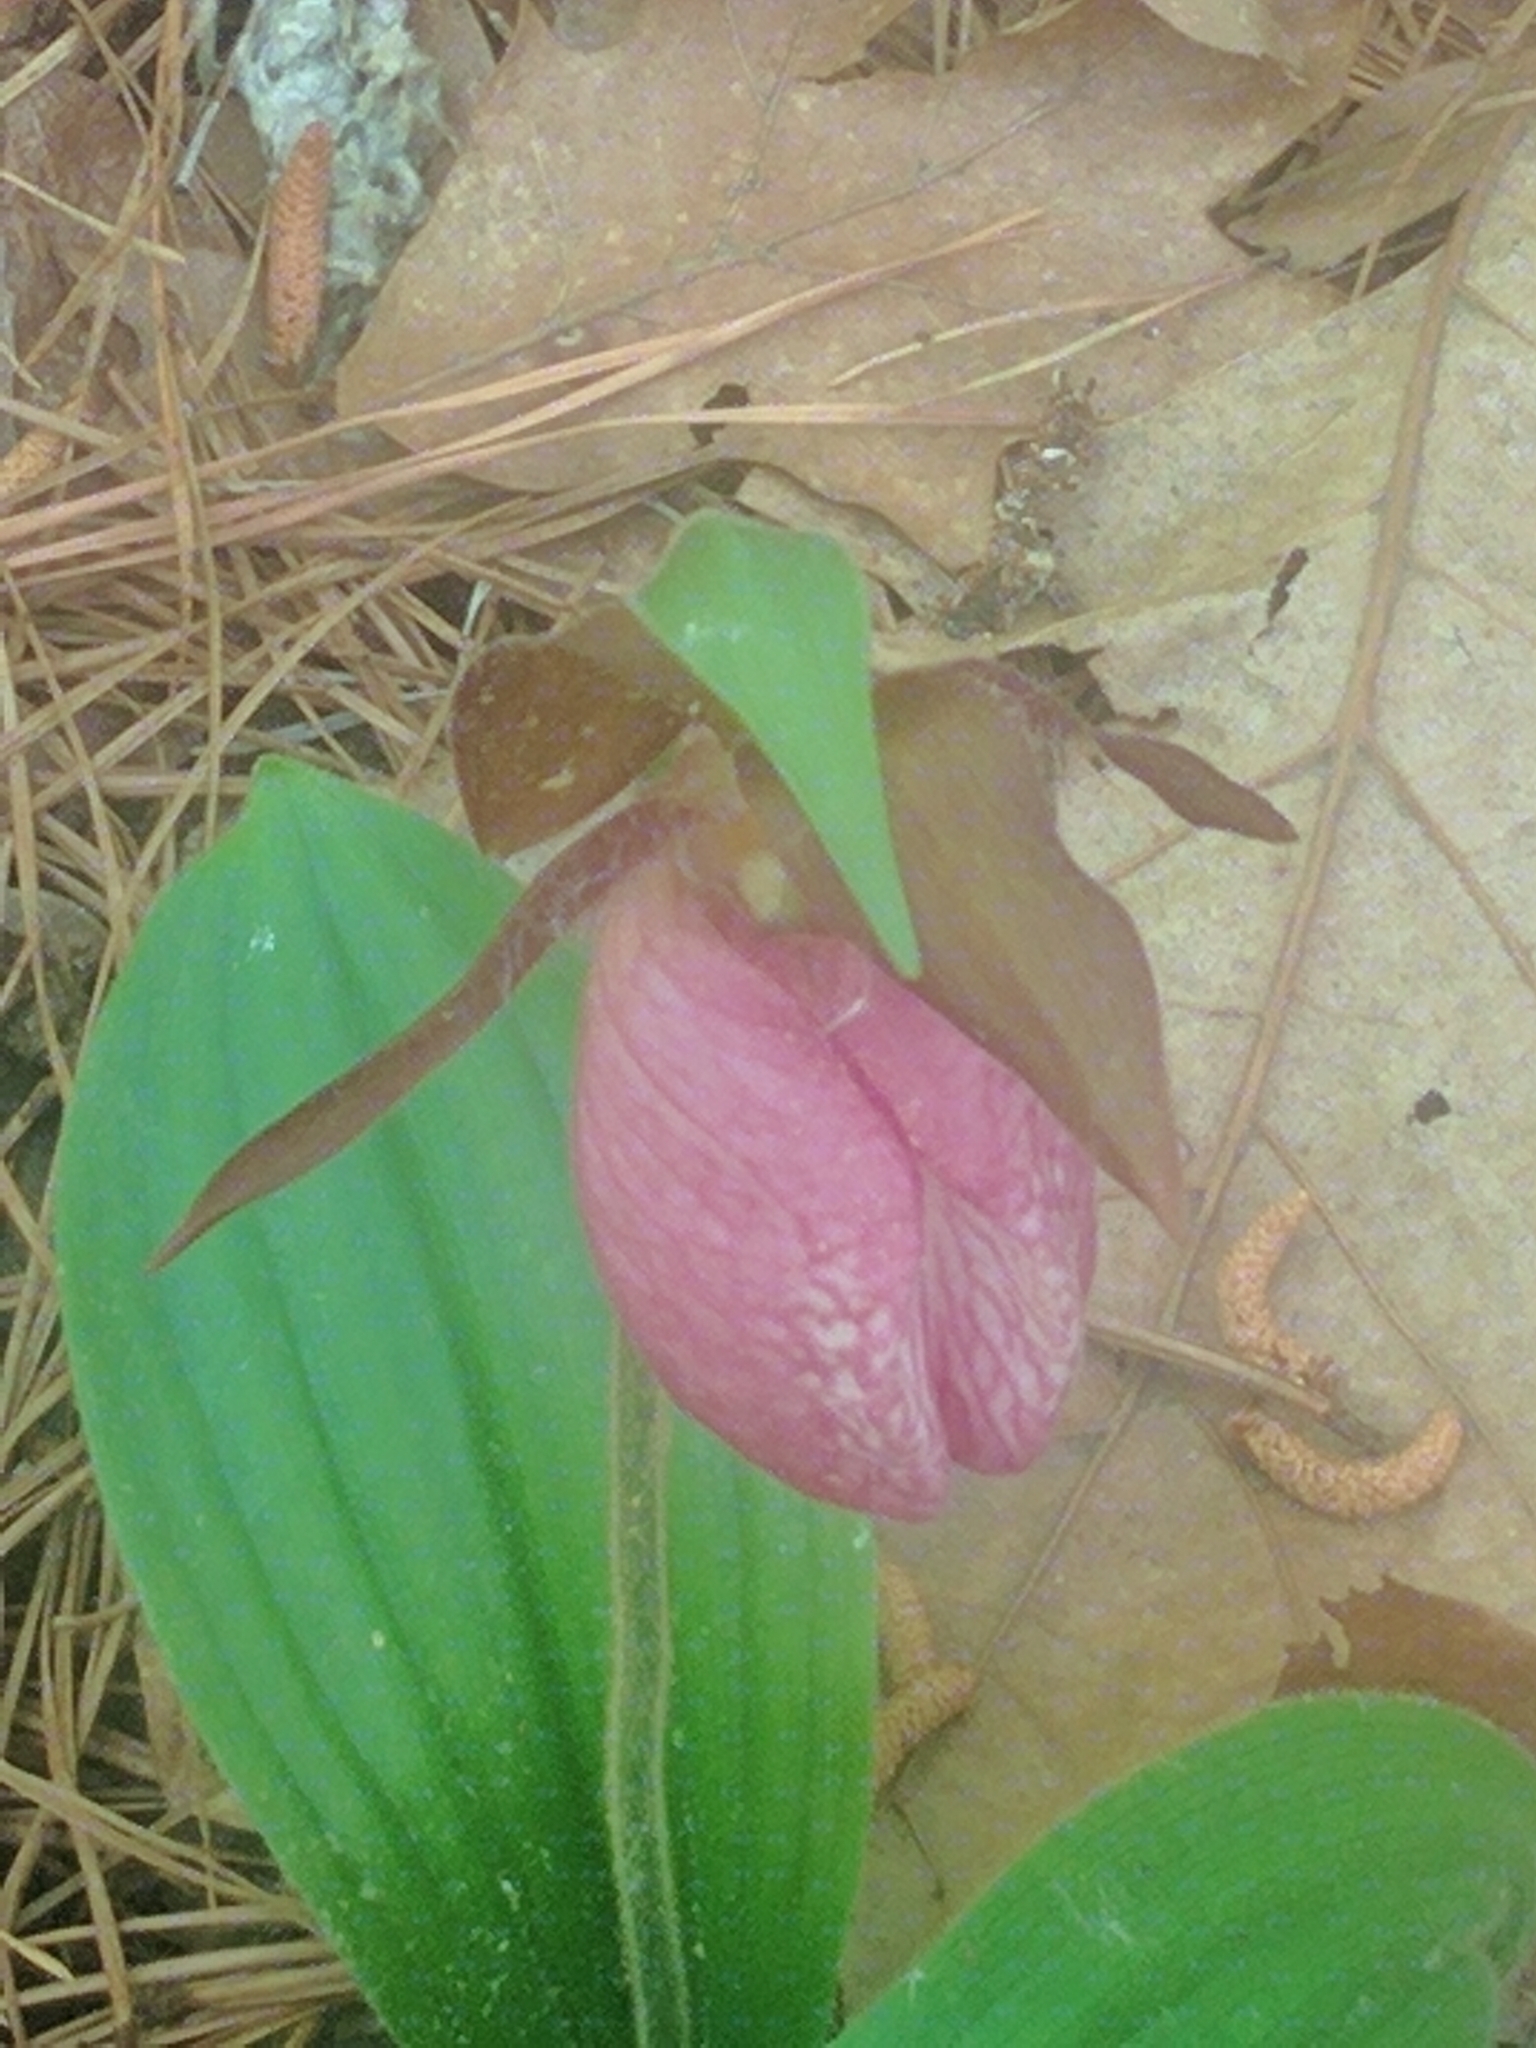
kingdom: Plantae
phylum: Tracheophyta
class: Liliopsida
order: Asparagales
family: Orchidaceae
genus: Cypripedium
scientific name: Cypripedium acaule
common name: Pink lady's-slipper
